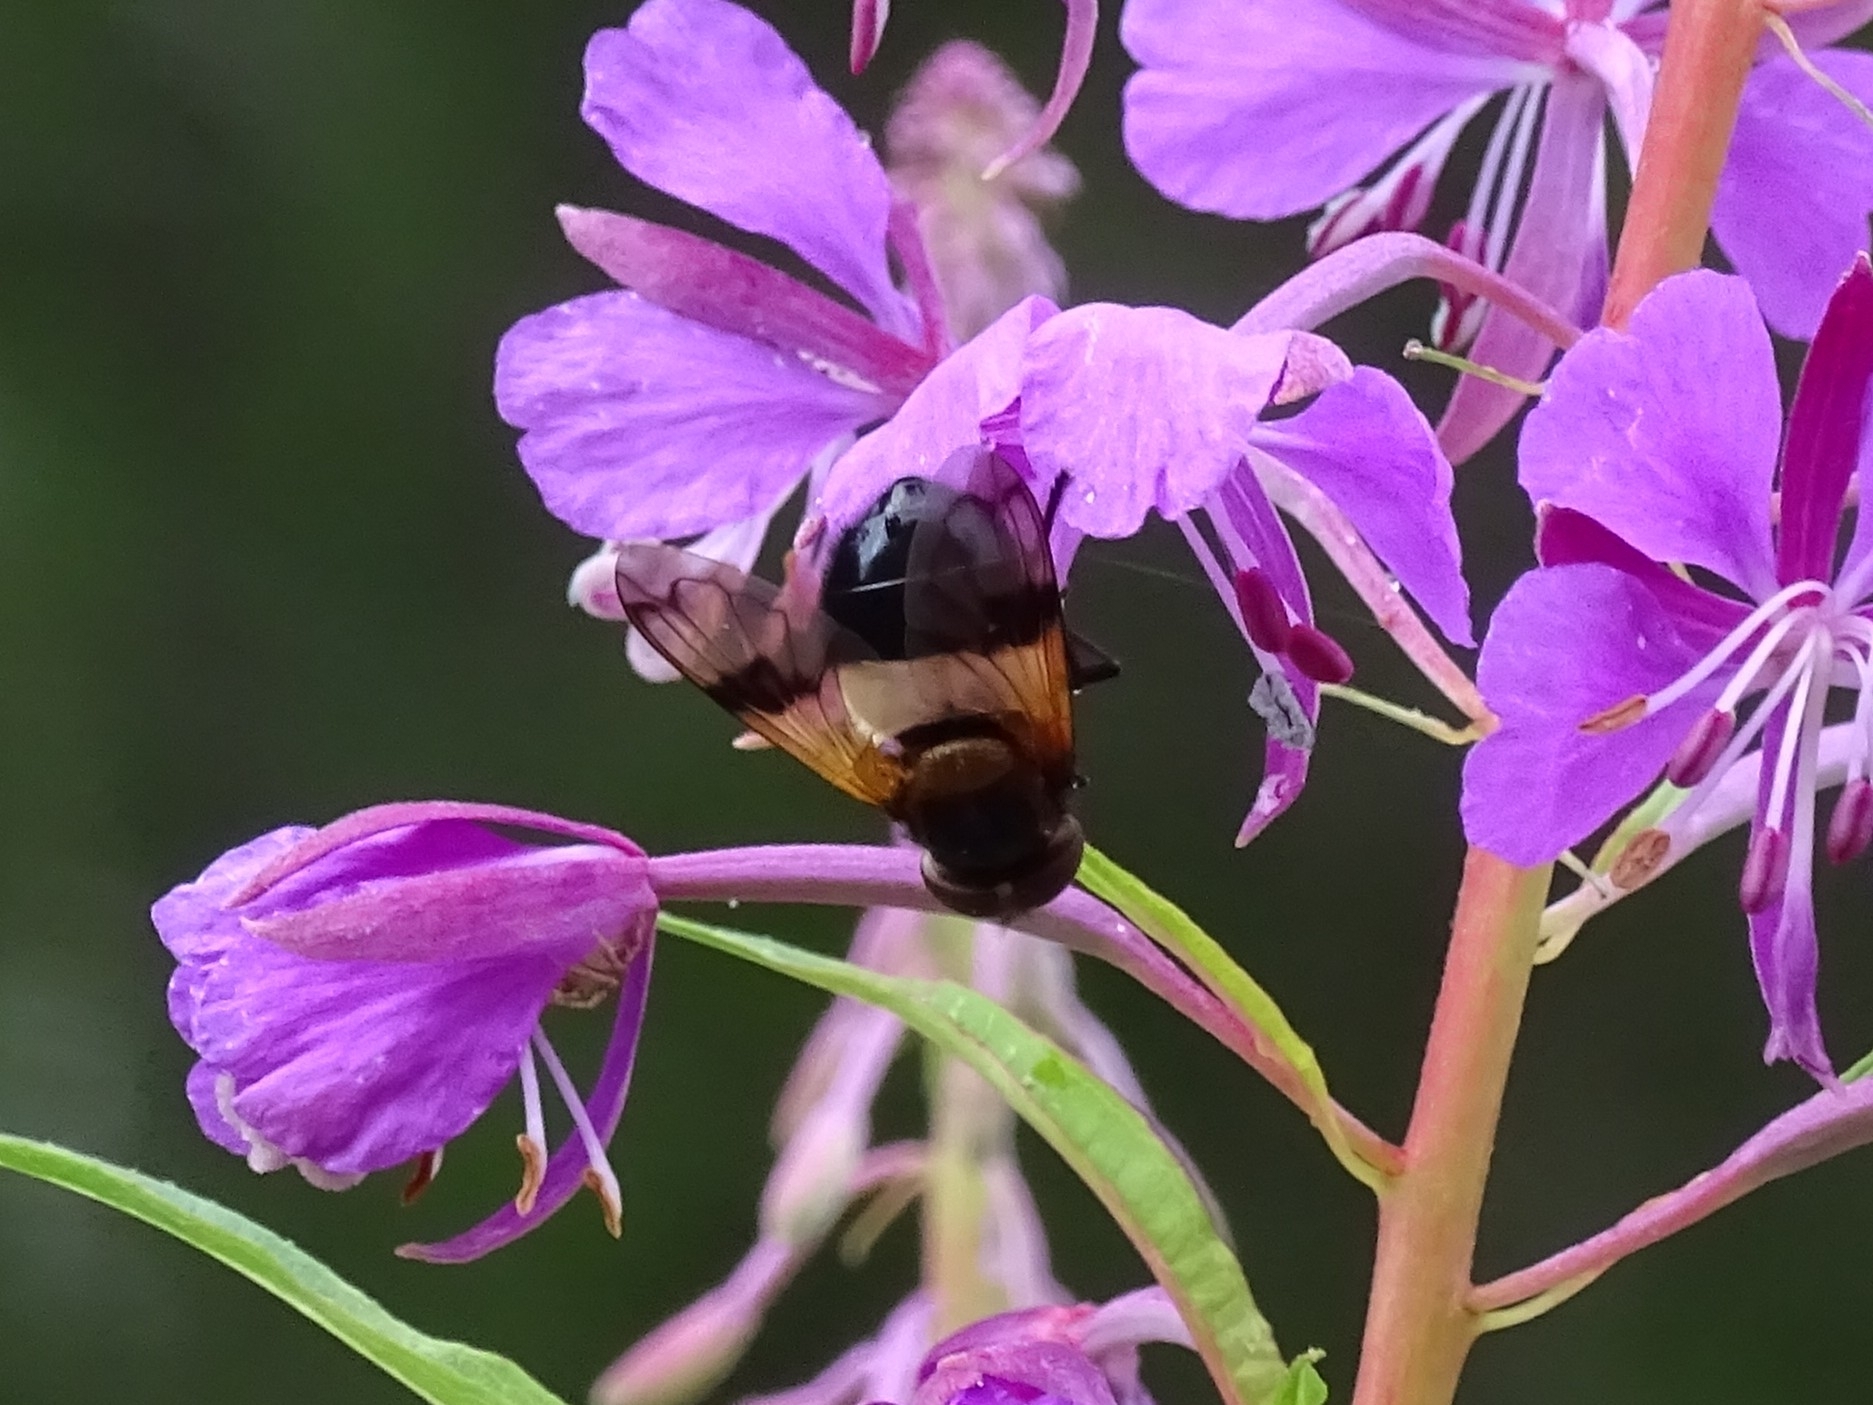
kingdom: Animalia
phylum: Arthropoda
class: Insecta
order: Diptera
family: Syrphidae
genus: Volucella
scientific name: Volucella pellucens
